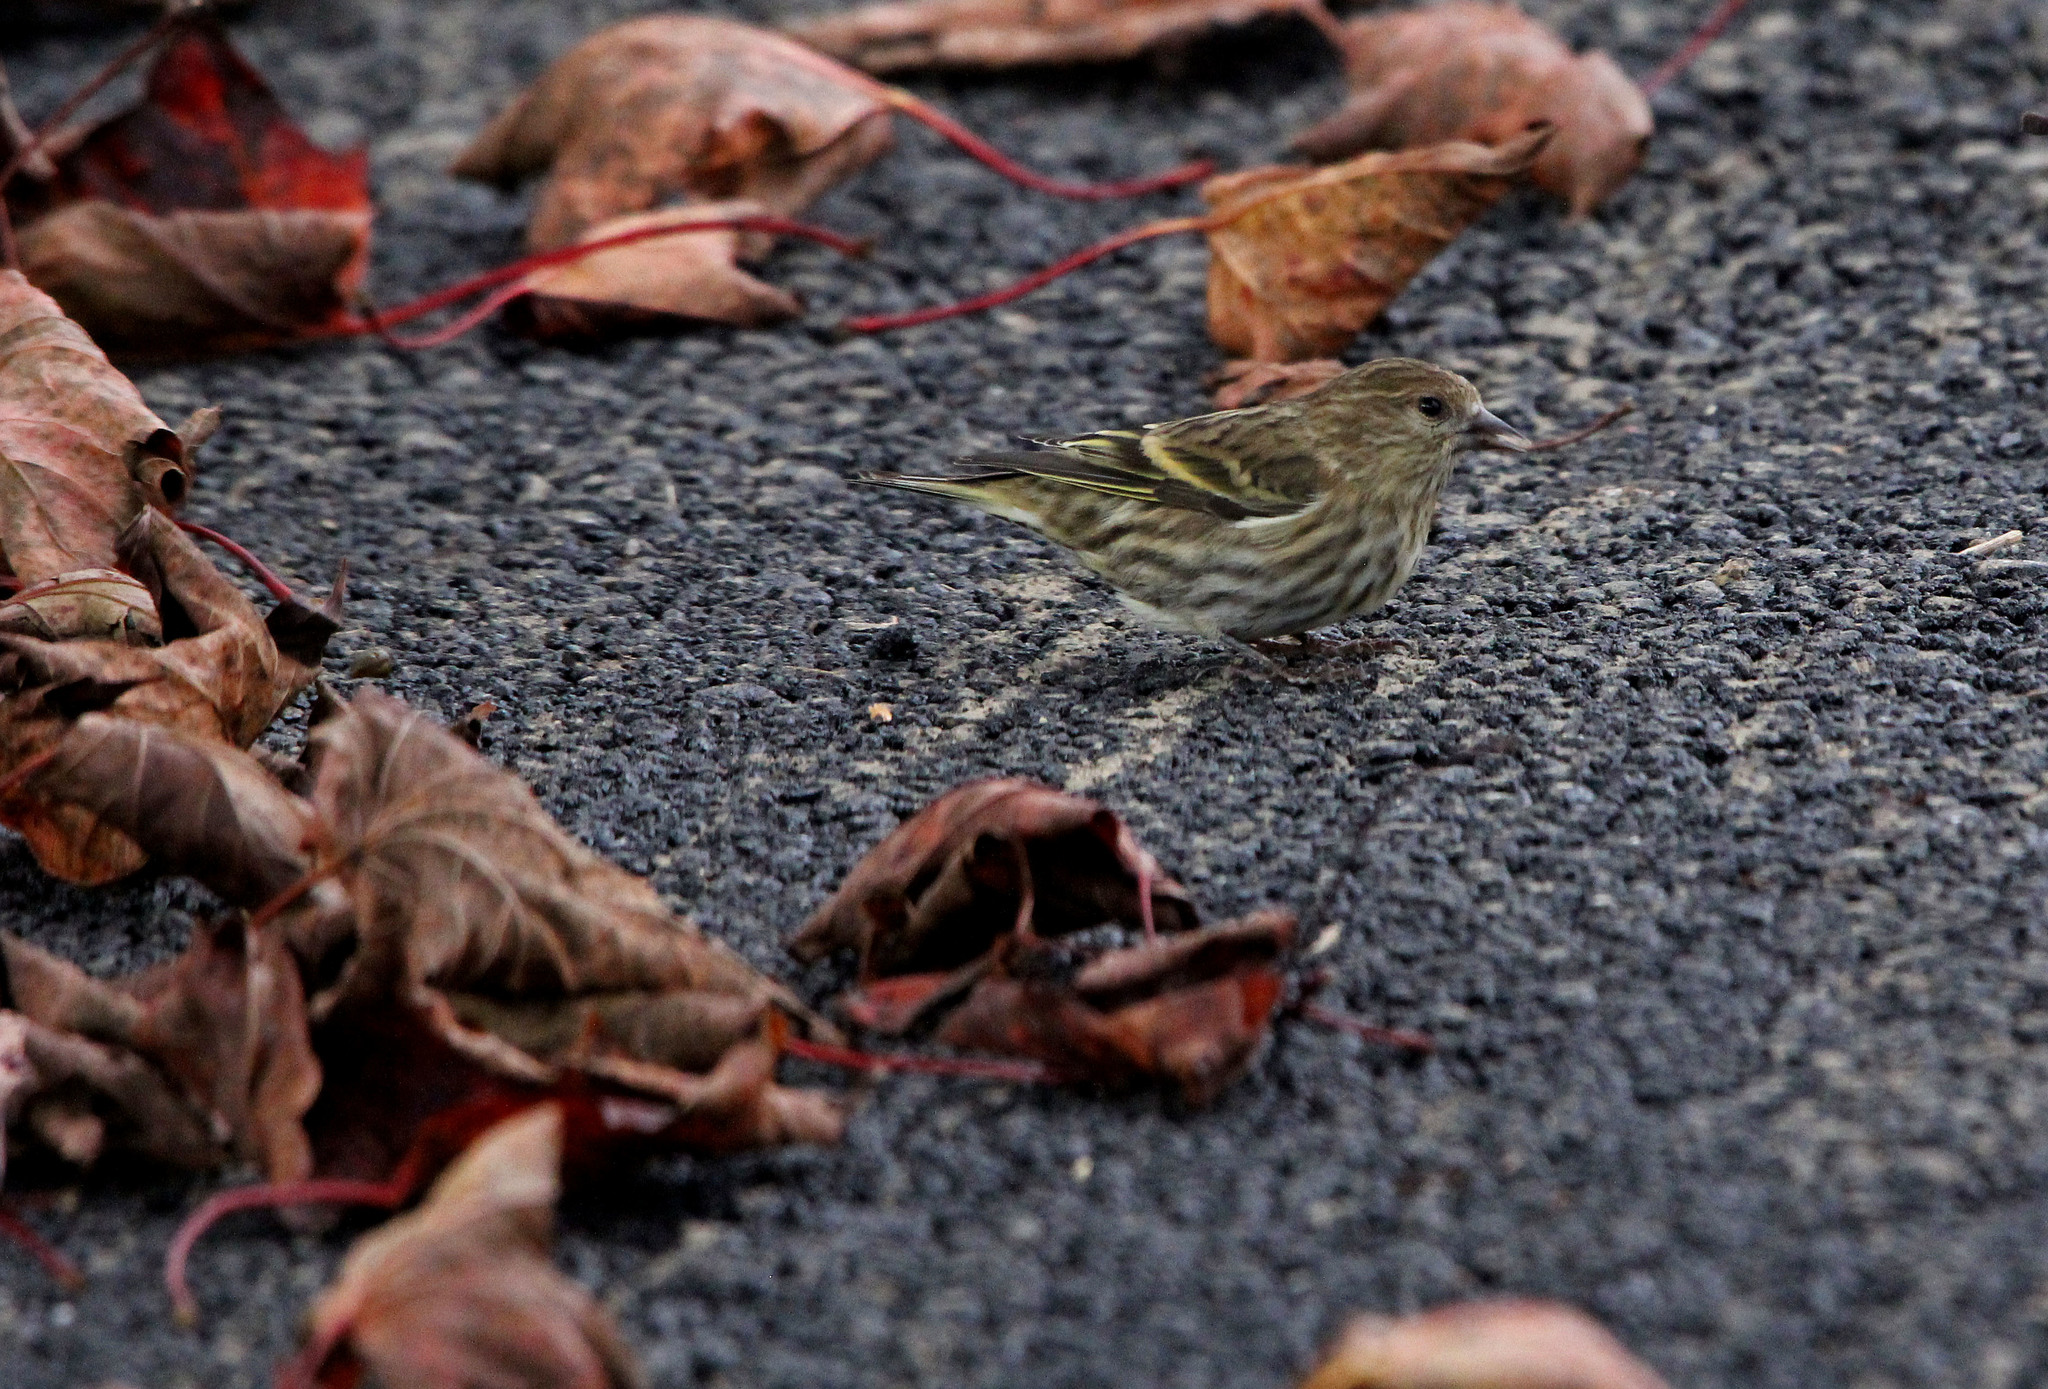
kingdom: Animalia
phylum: Chordata
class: Aves
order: Passeriformes
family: Fringillidae
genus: Spinus
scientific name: Spinus pinus
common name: Pine siskin
